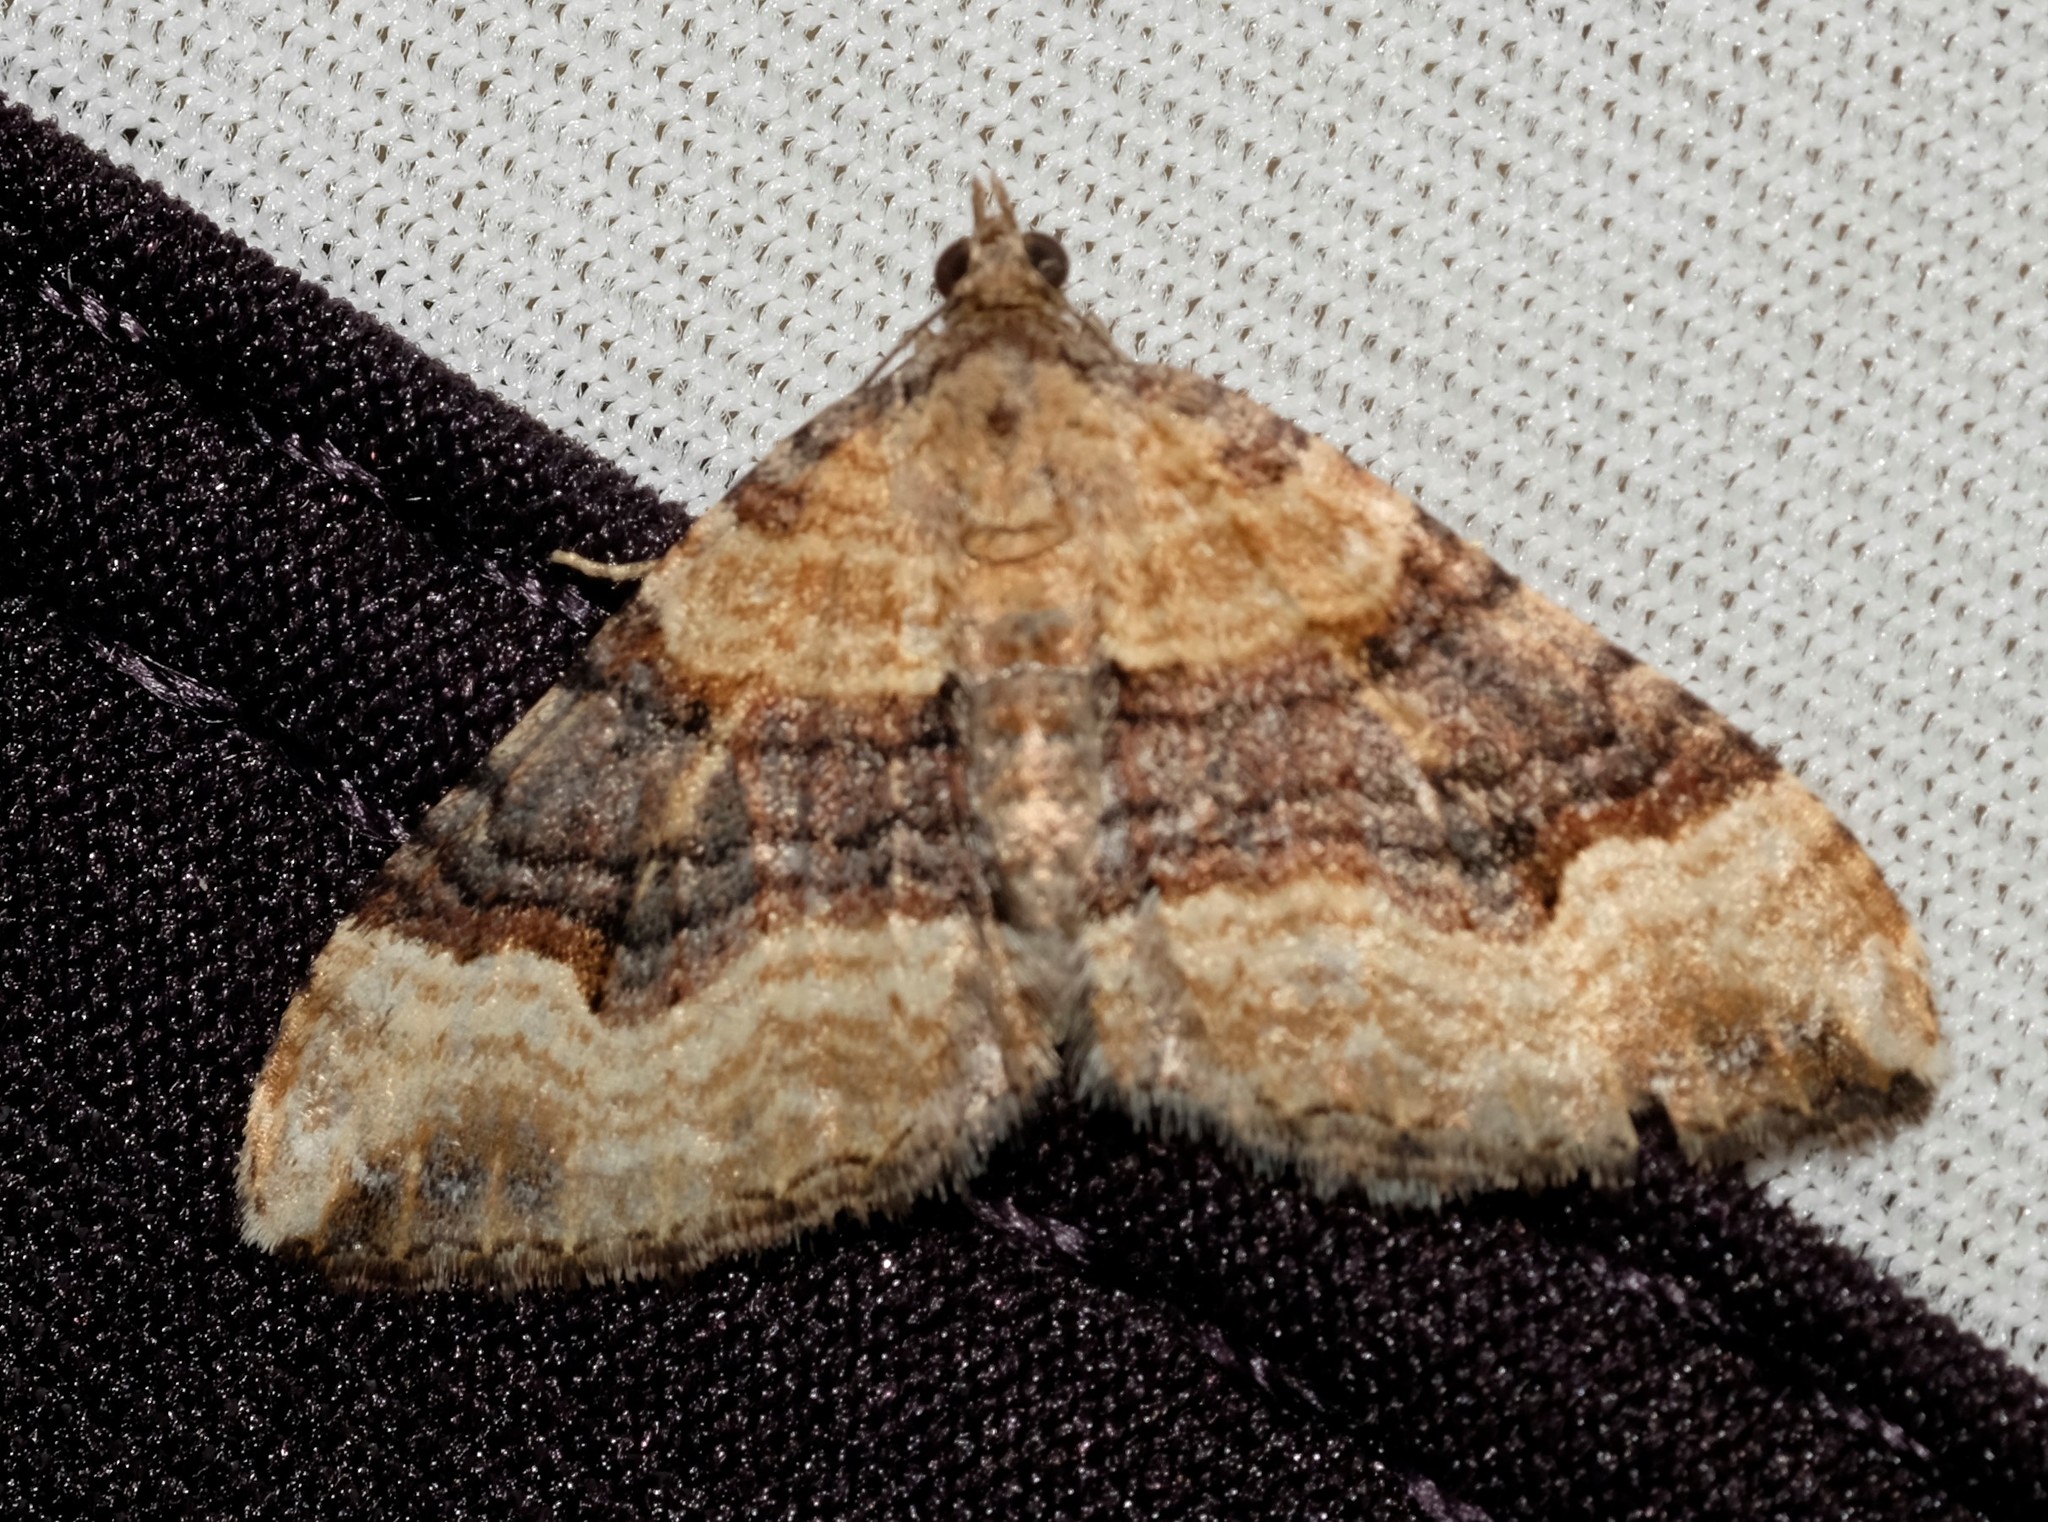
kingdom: Animalia
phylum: Arthropoda
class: Insecta
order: Lepidoptera
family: Geometridae
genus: Epyaxa
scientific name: Epyaxa subidaria
